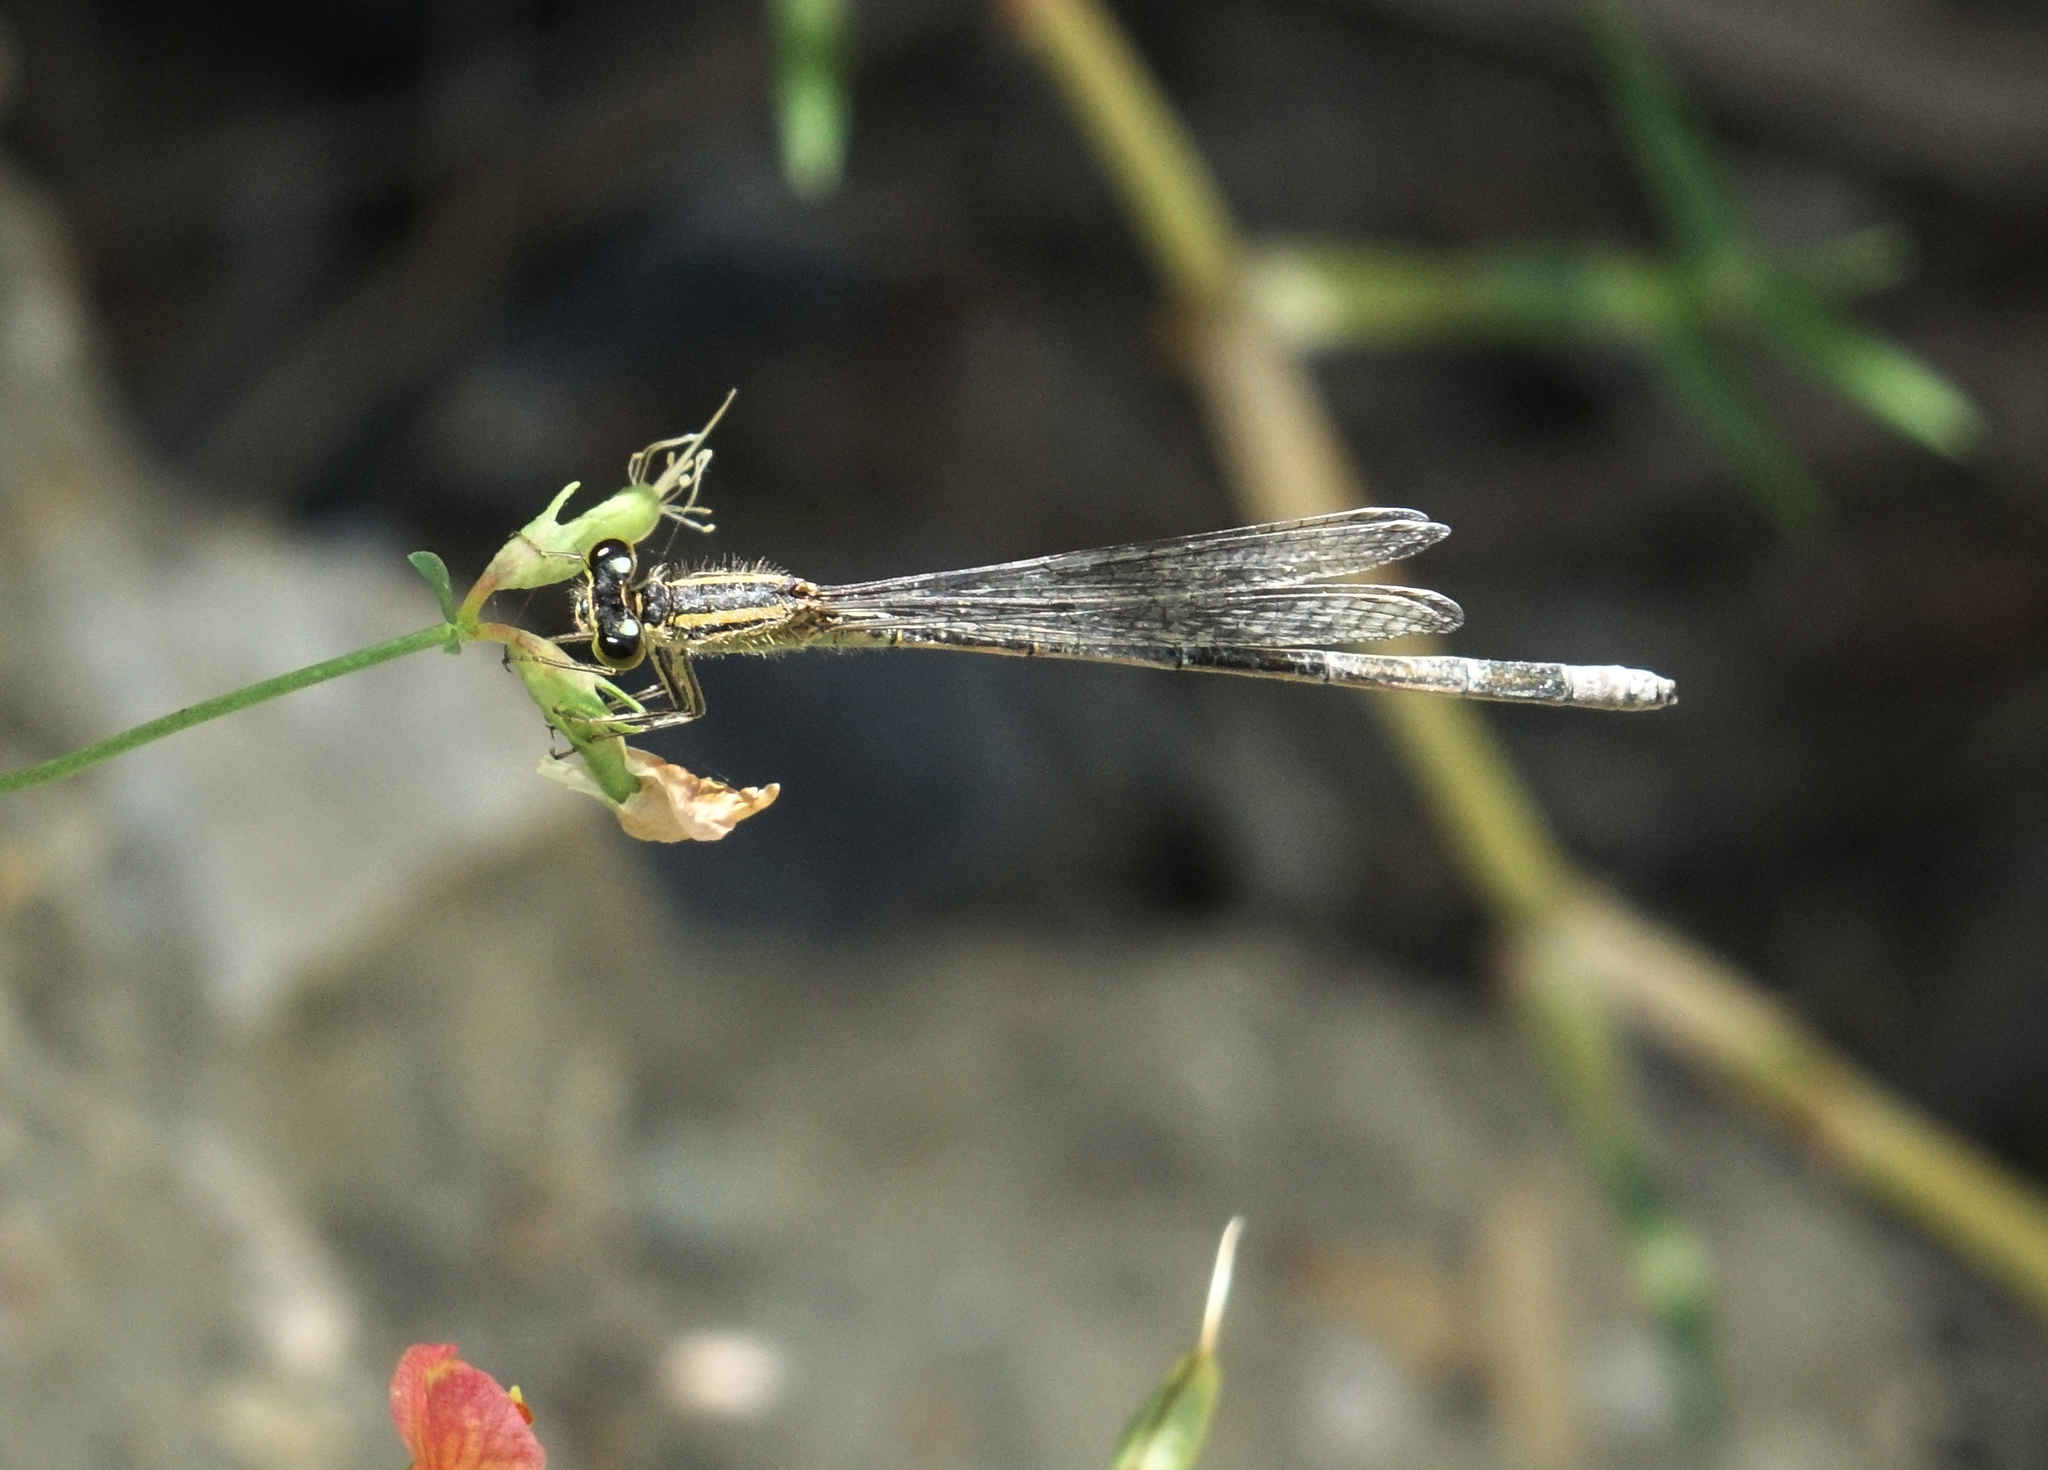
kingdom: Animalia
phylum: Arthropoda
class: Insecta
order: Odonata
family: Coenagrionidae
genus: Ischnura
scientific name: Ischnura elegans
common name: Blue-tailed damselfly
